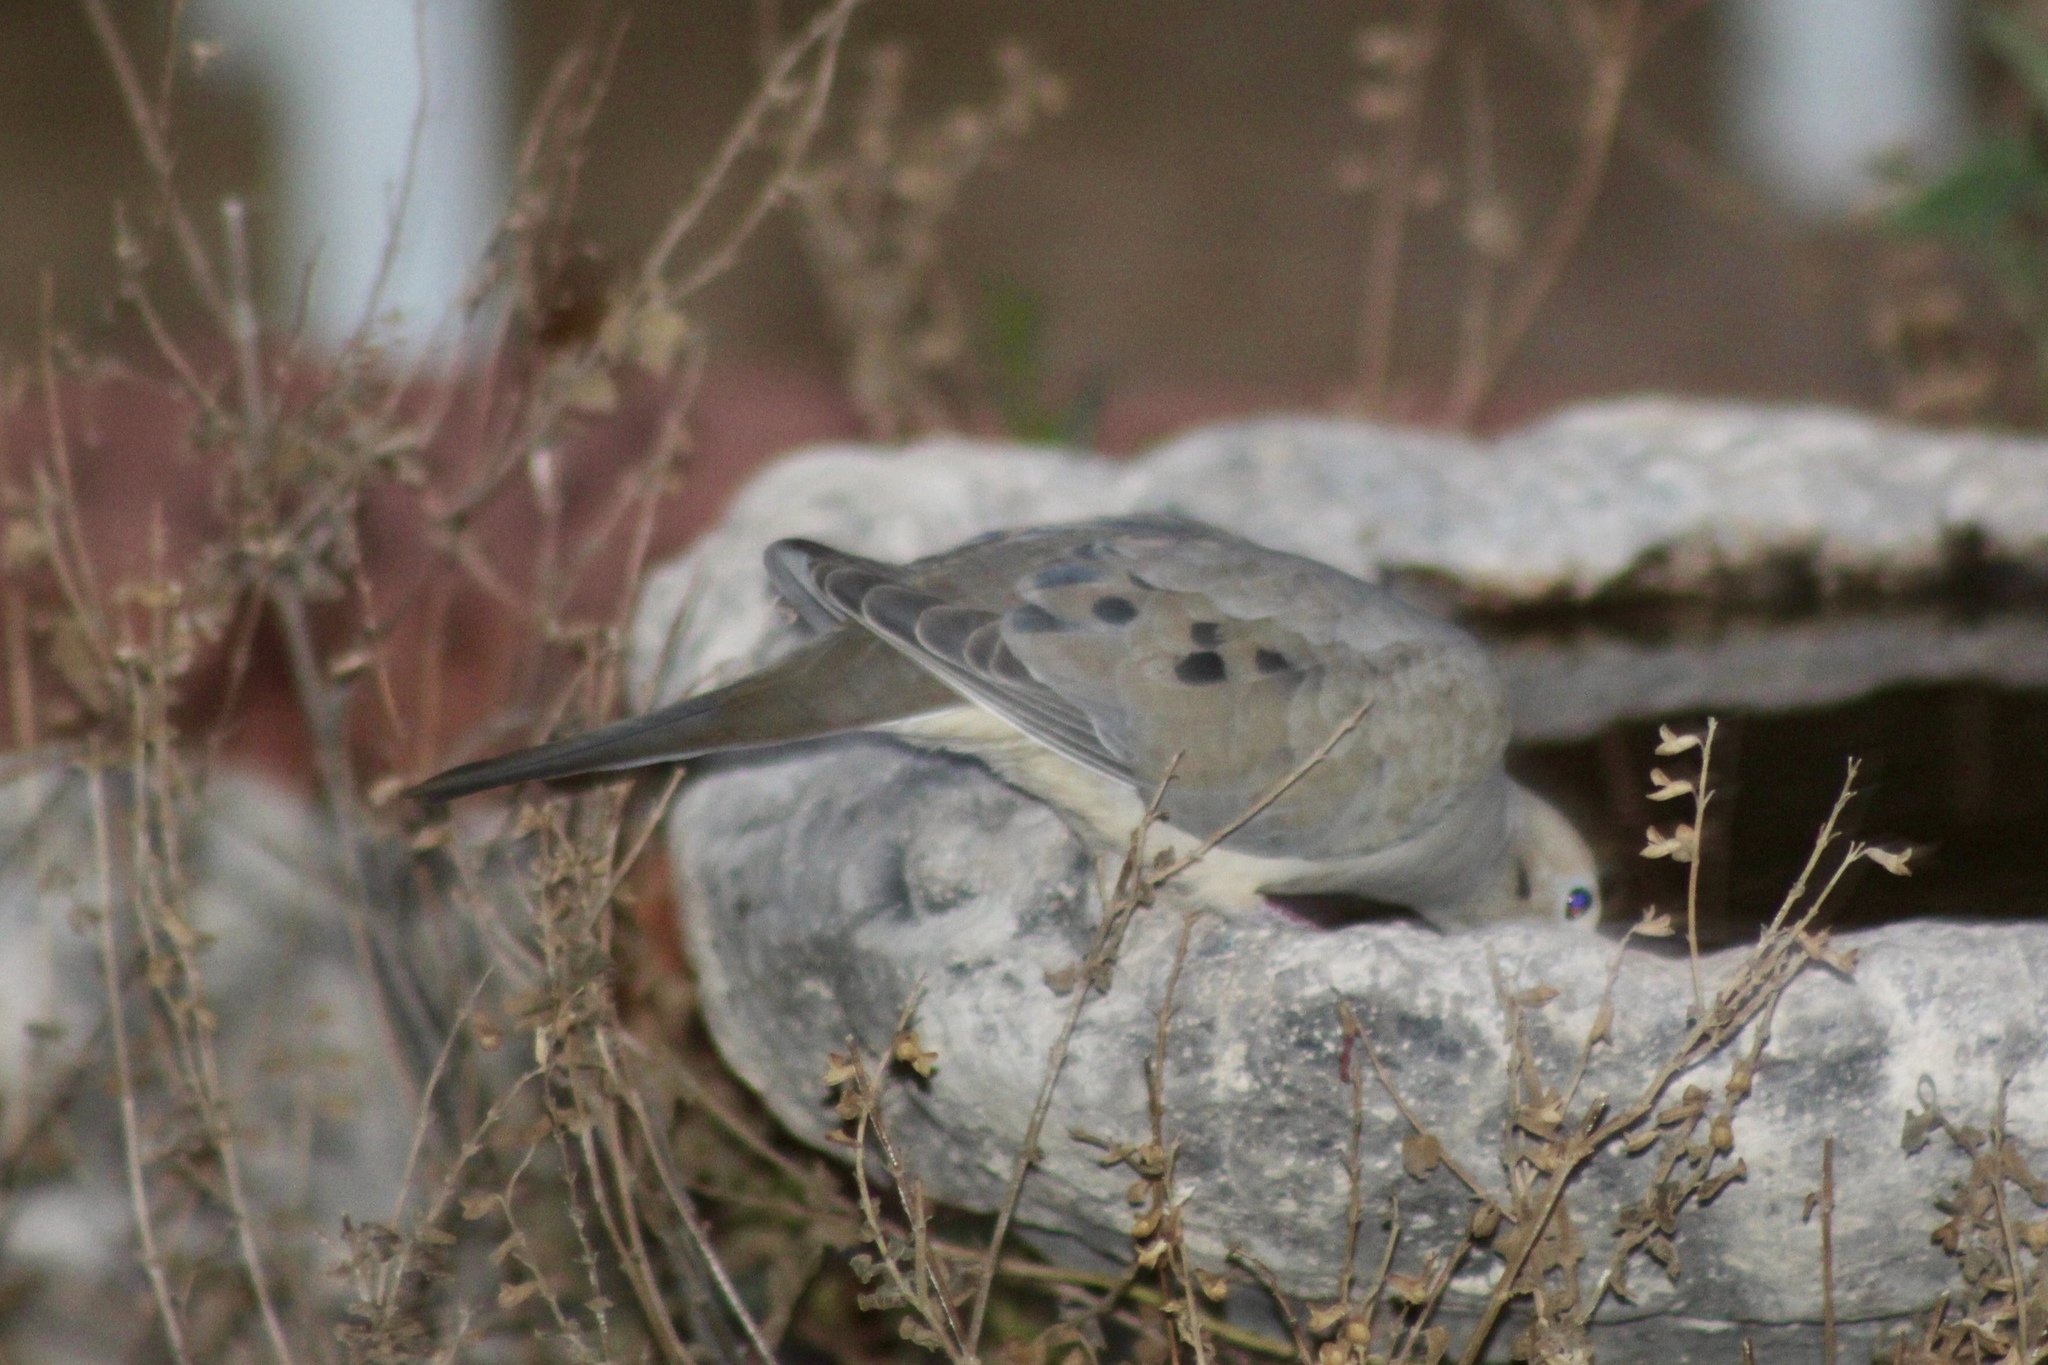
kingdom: Animalia
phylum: Chordata
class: Aves
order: Columbiformes
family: Columbidae
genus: Zenaida
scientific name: Zenaida macroura
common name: Mourning dove
